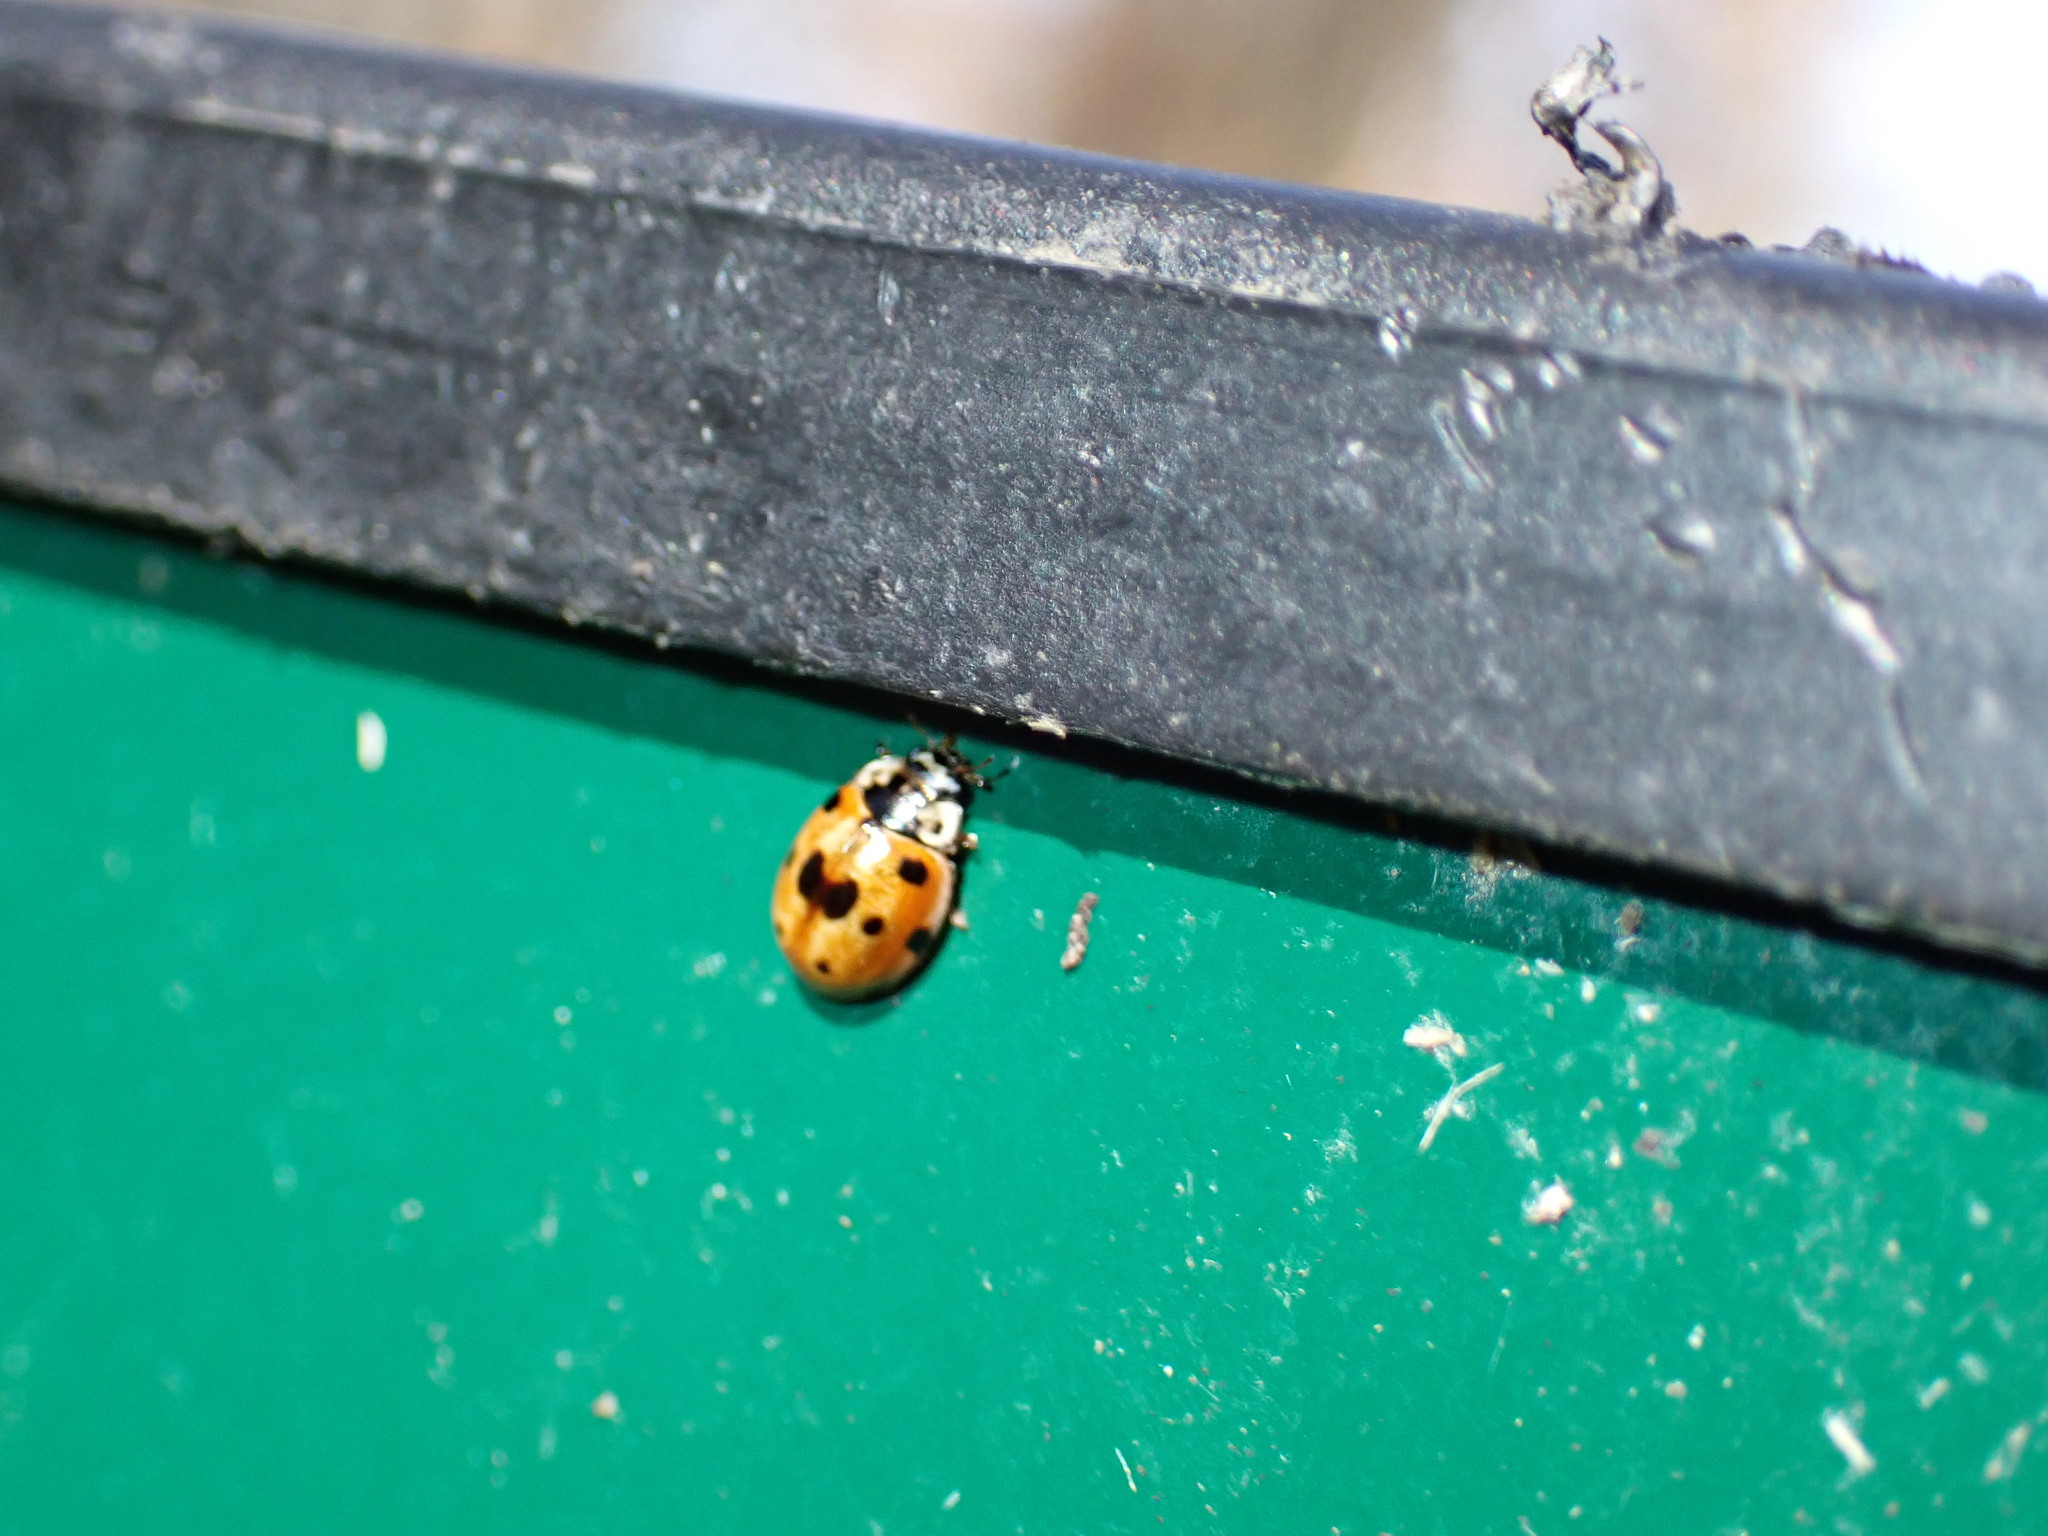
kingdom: Animalia
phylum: Arthropoda
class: Insecta
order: Coleoptera
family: Coccinellidae
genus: Adalia
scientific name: Adalia decempunctata
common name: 10-spot ladybird
